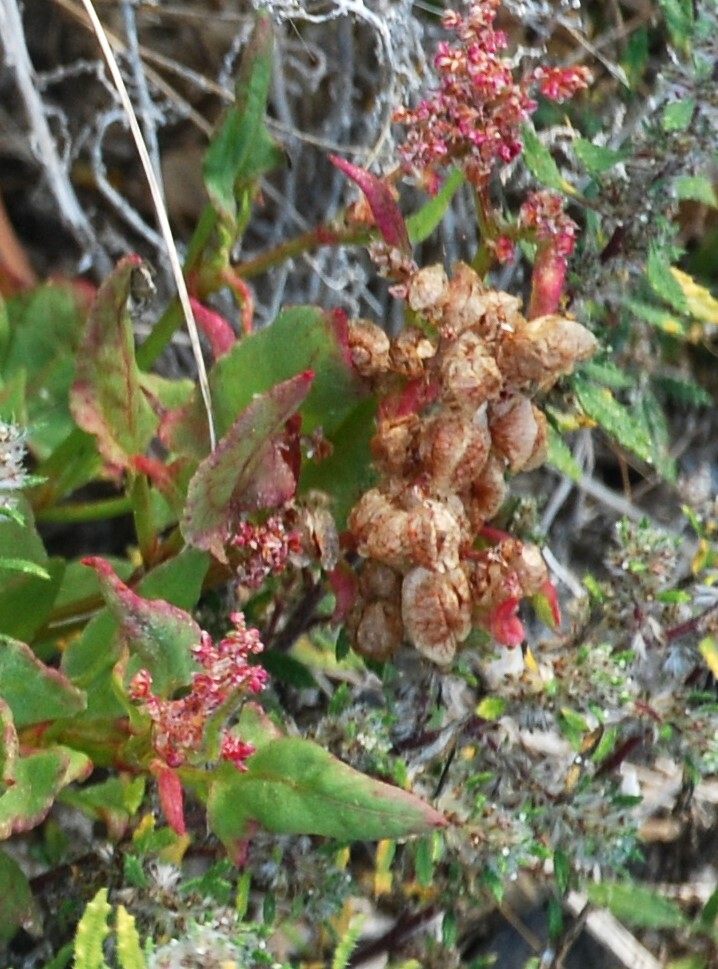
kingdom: Plantae
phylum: Tracheophyta
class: Magnoliopsida
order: Caryophyllales
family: Polygonaceae
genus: Rumex
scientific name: Rumex vesicarius
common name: Bladder dock
